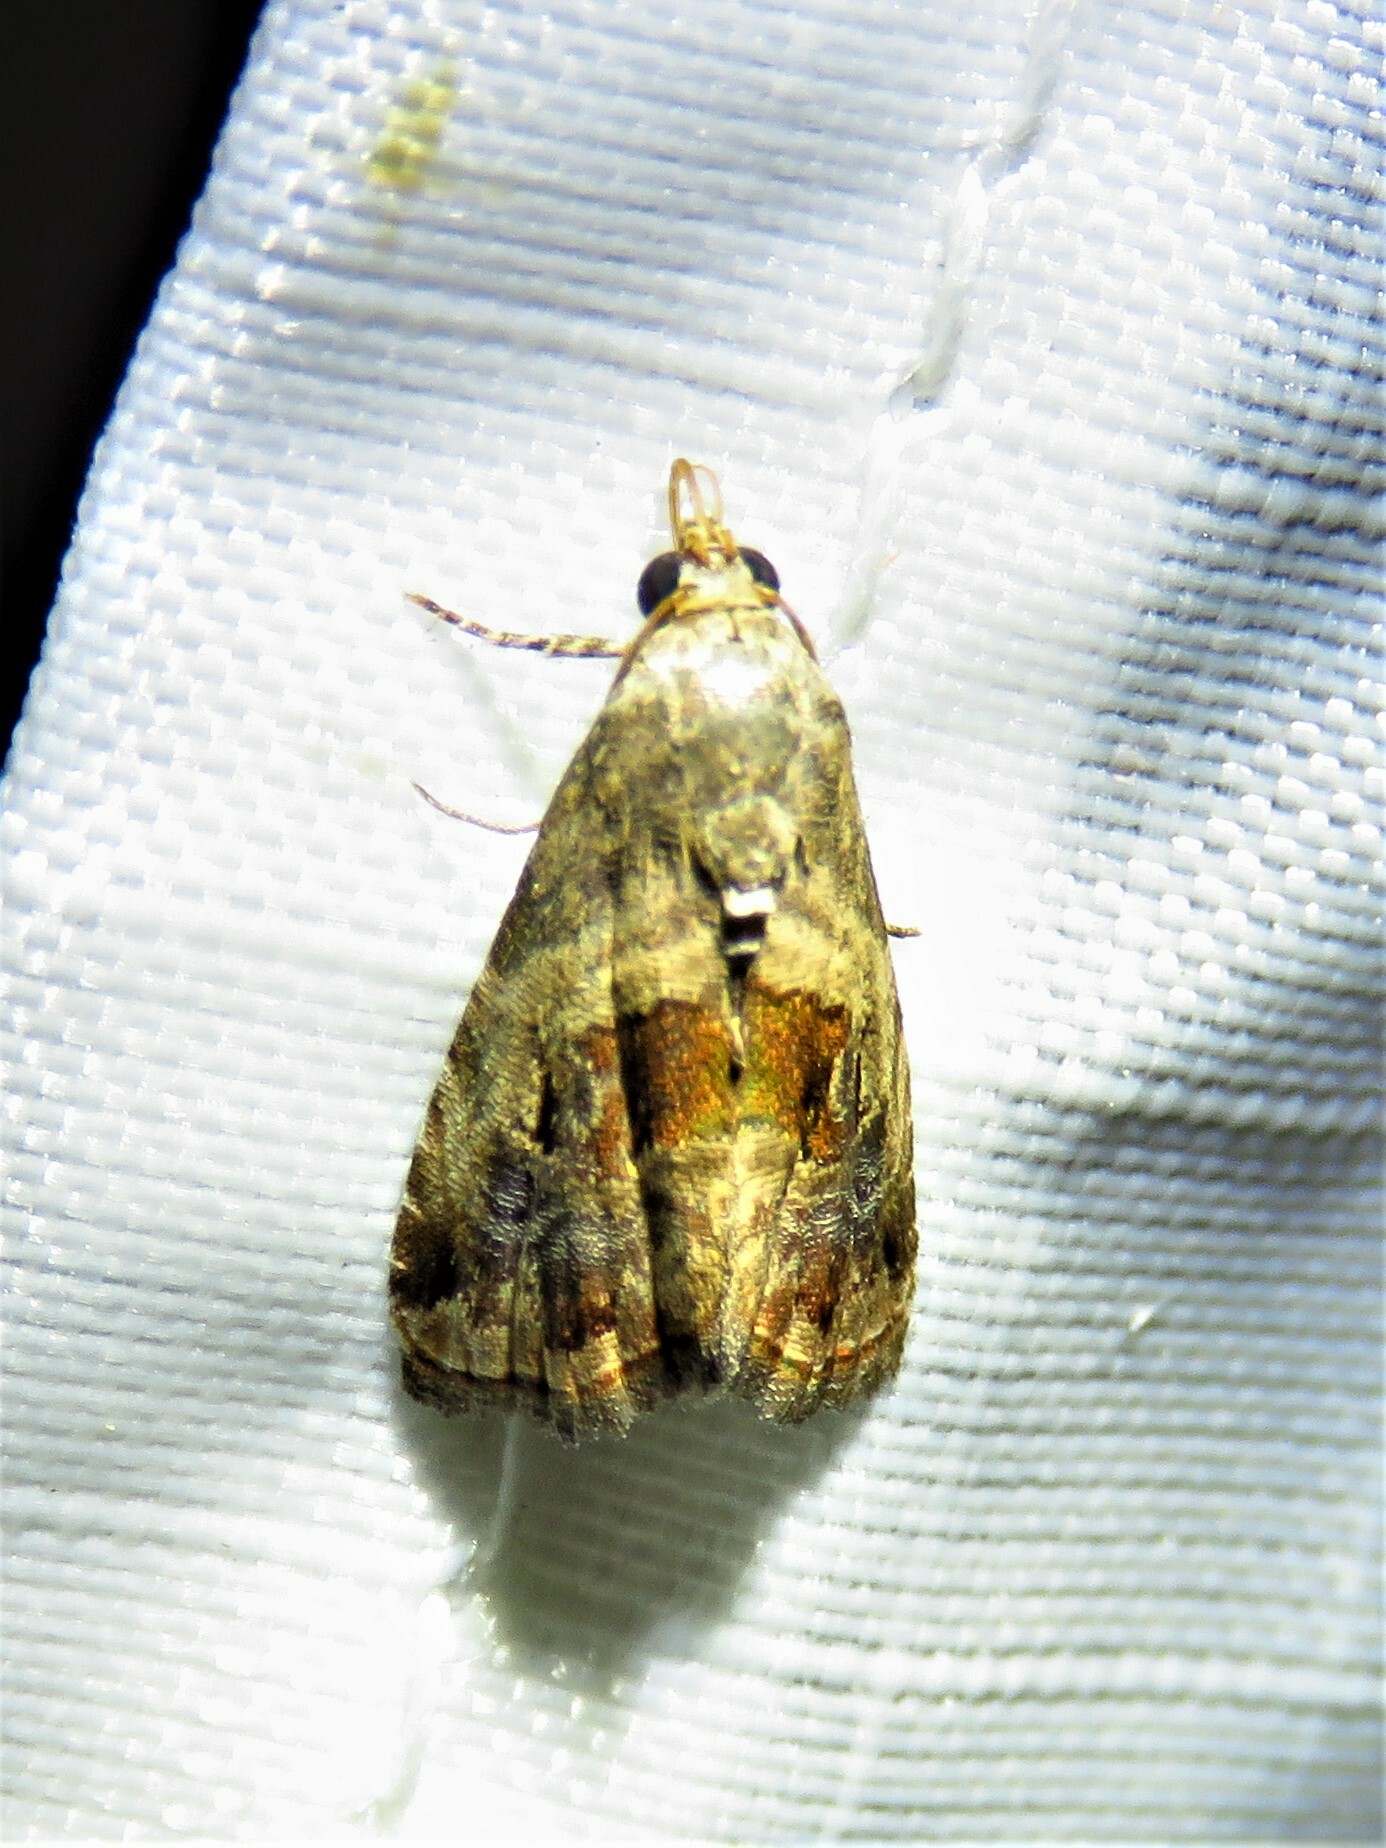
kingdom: Animalia
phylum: Arthropoda
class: Insecta
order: Lepidoptera
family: Noctuidae
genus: Tripudia
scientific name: Tripudia quadrifera
